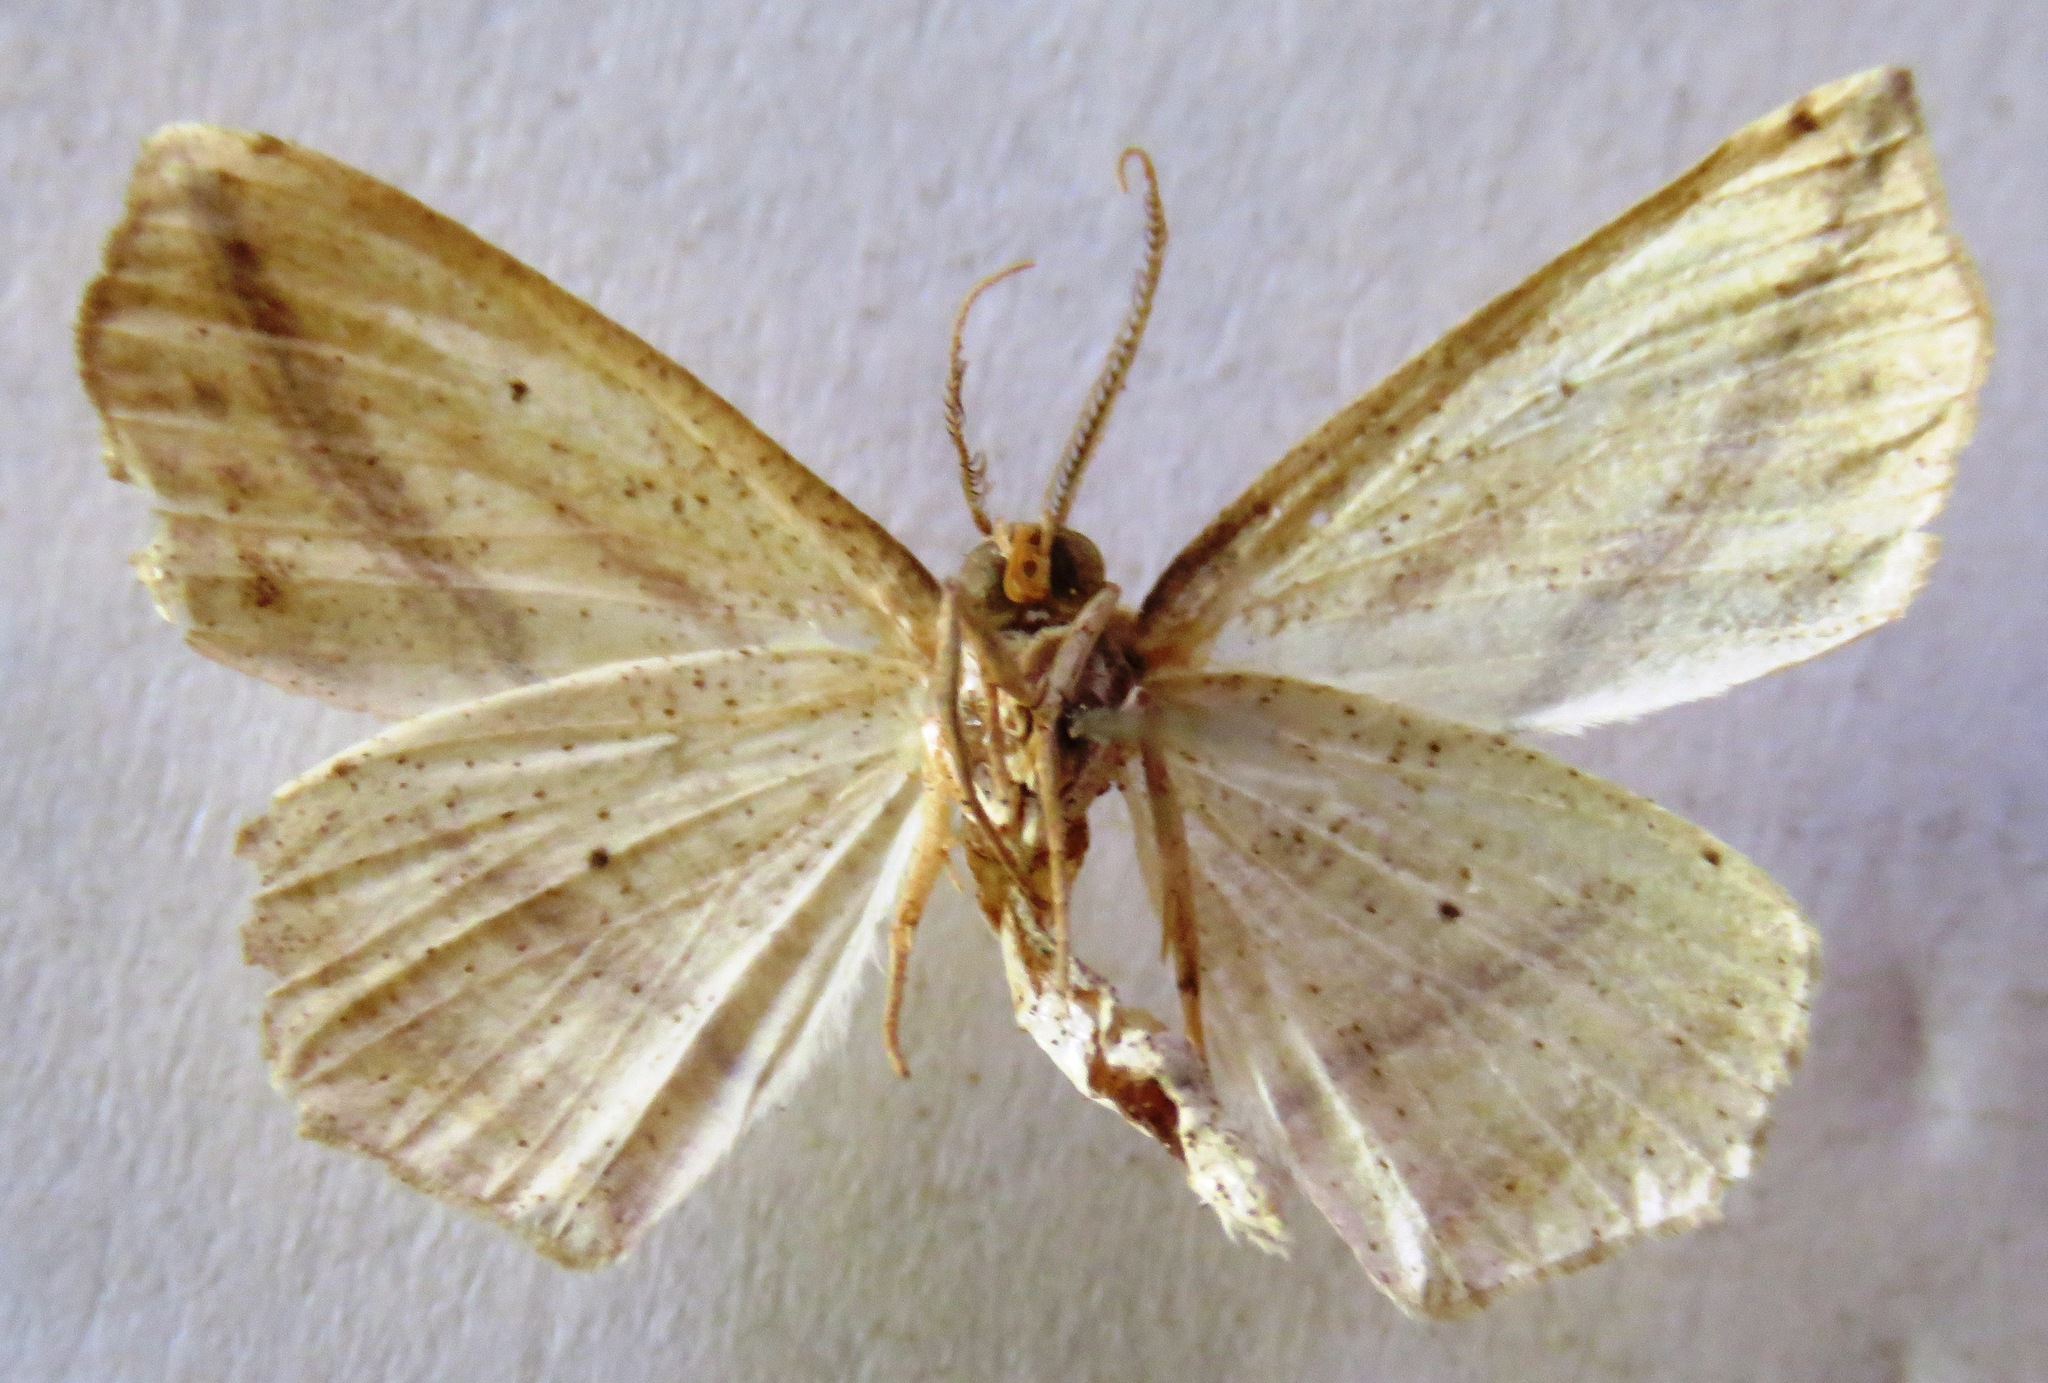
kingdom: Animalia
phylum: Arthropoda
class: Insecta
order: Lepidoptera
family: Geometridae
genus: Eusarca
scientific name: Eusarca flexilis
